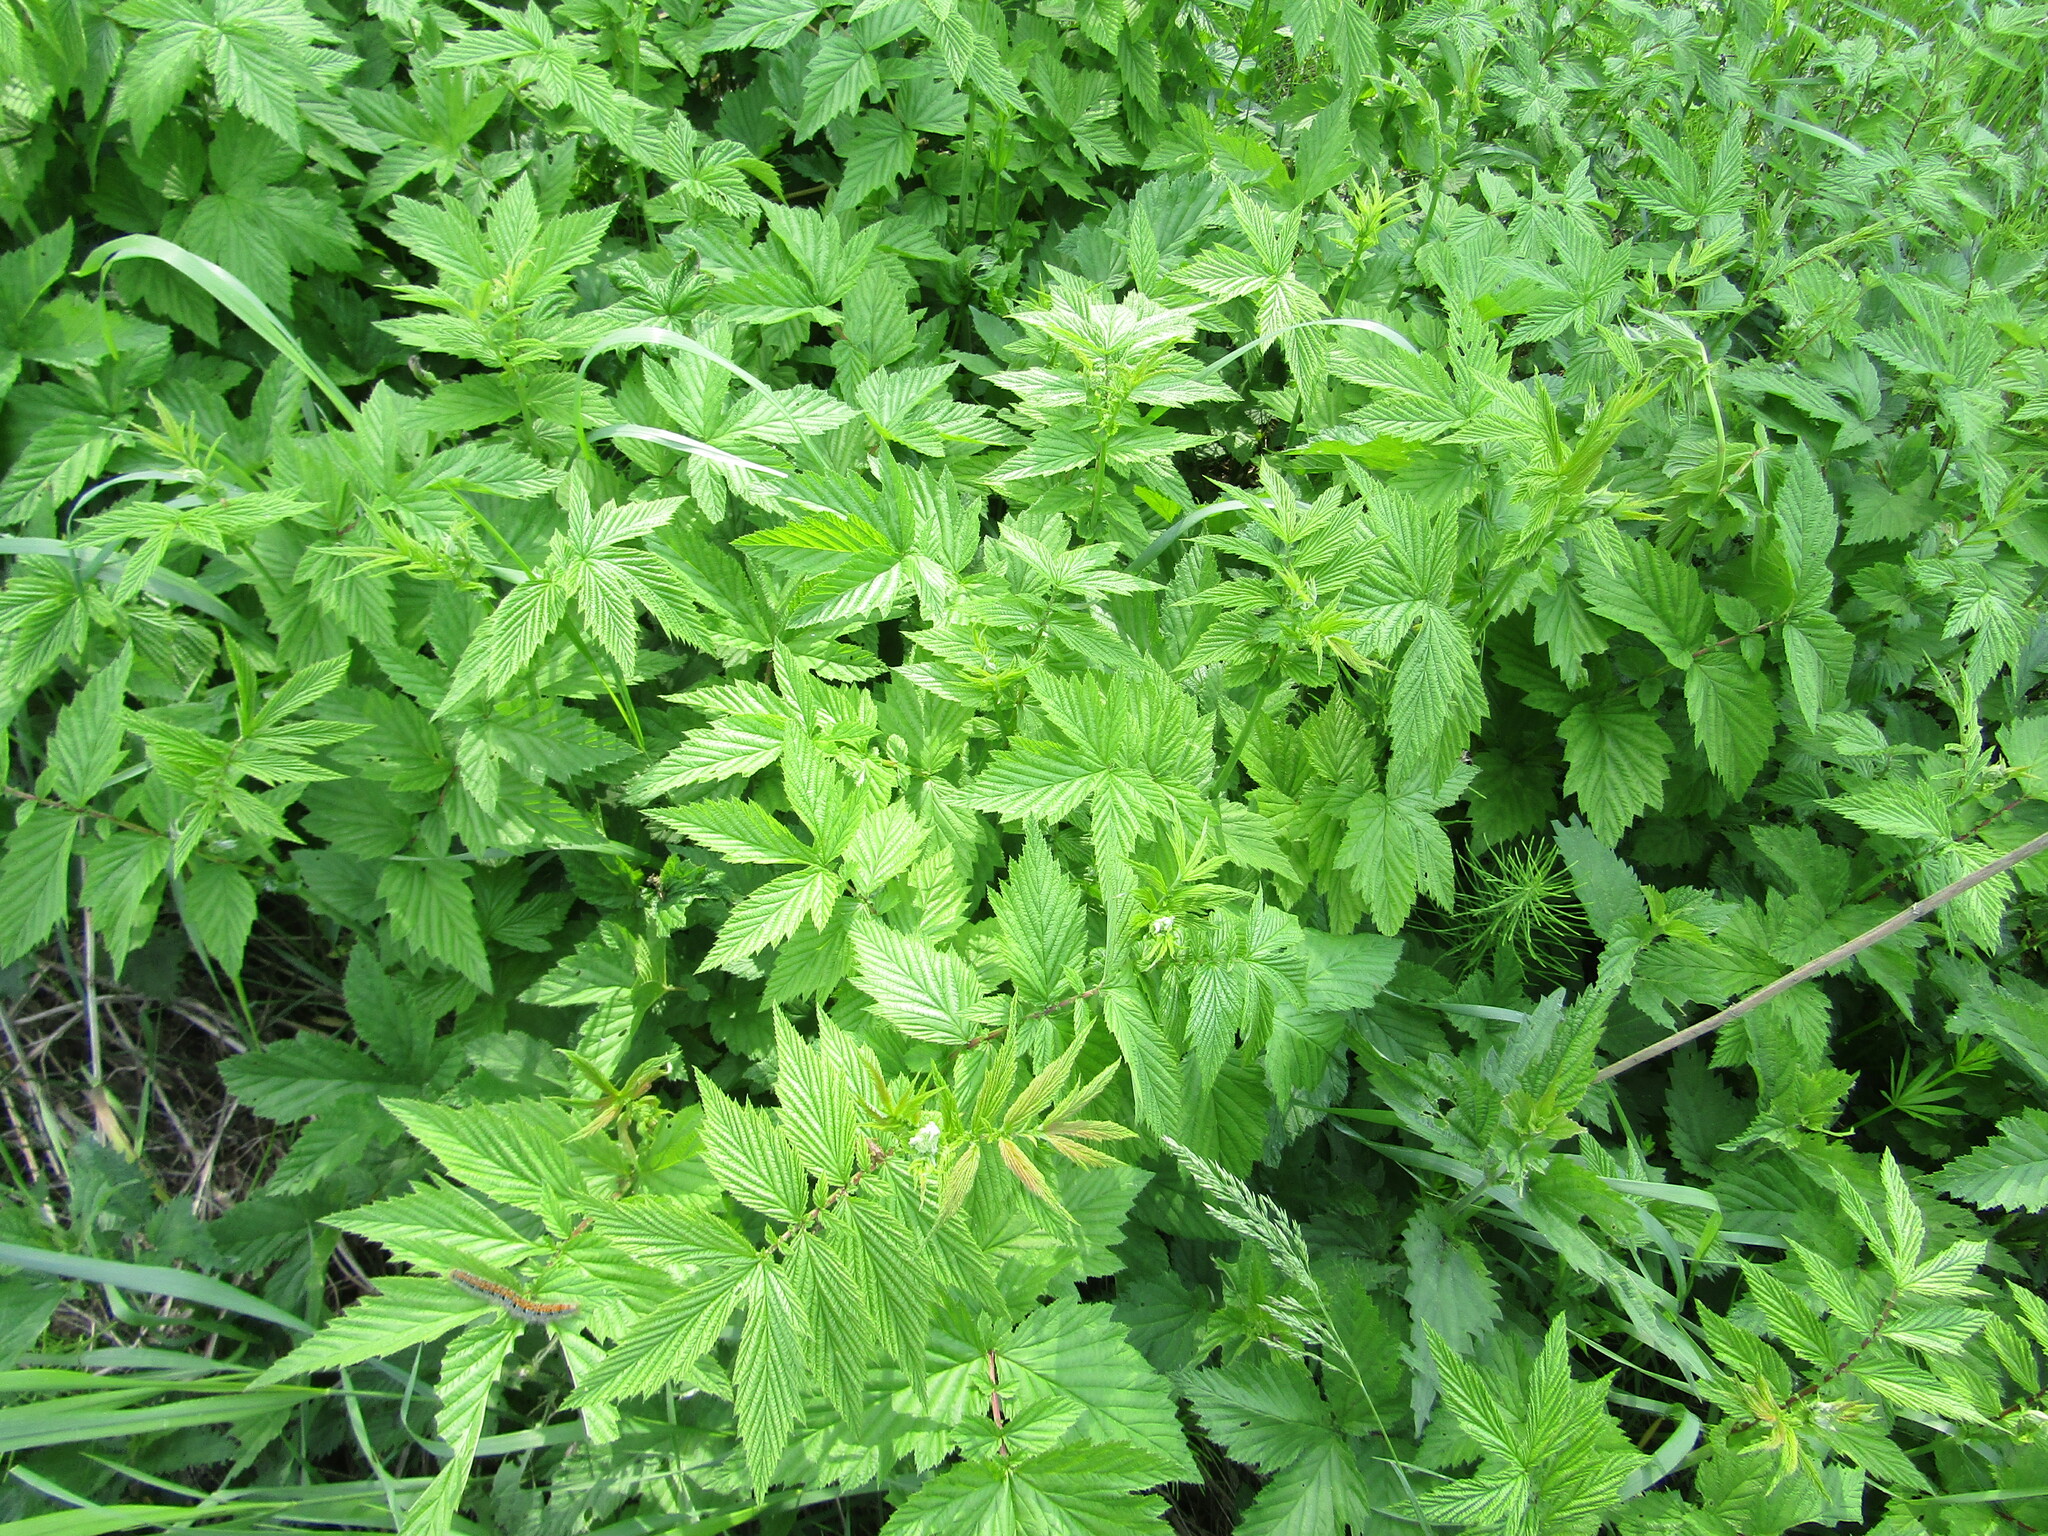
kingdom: Plantae
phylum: Tracheophyta
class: Magnoliopsida
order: Rosales
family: Rosaceae
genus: Filipendula
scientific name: Filipendula ulmaria
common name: Meadowsweet
